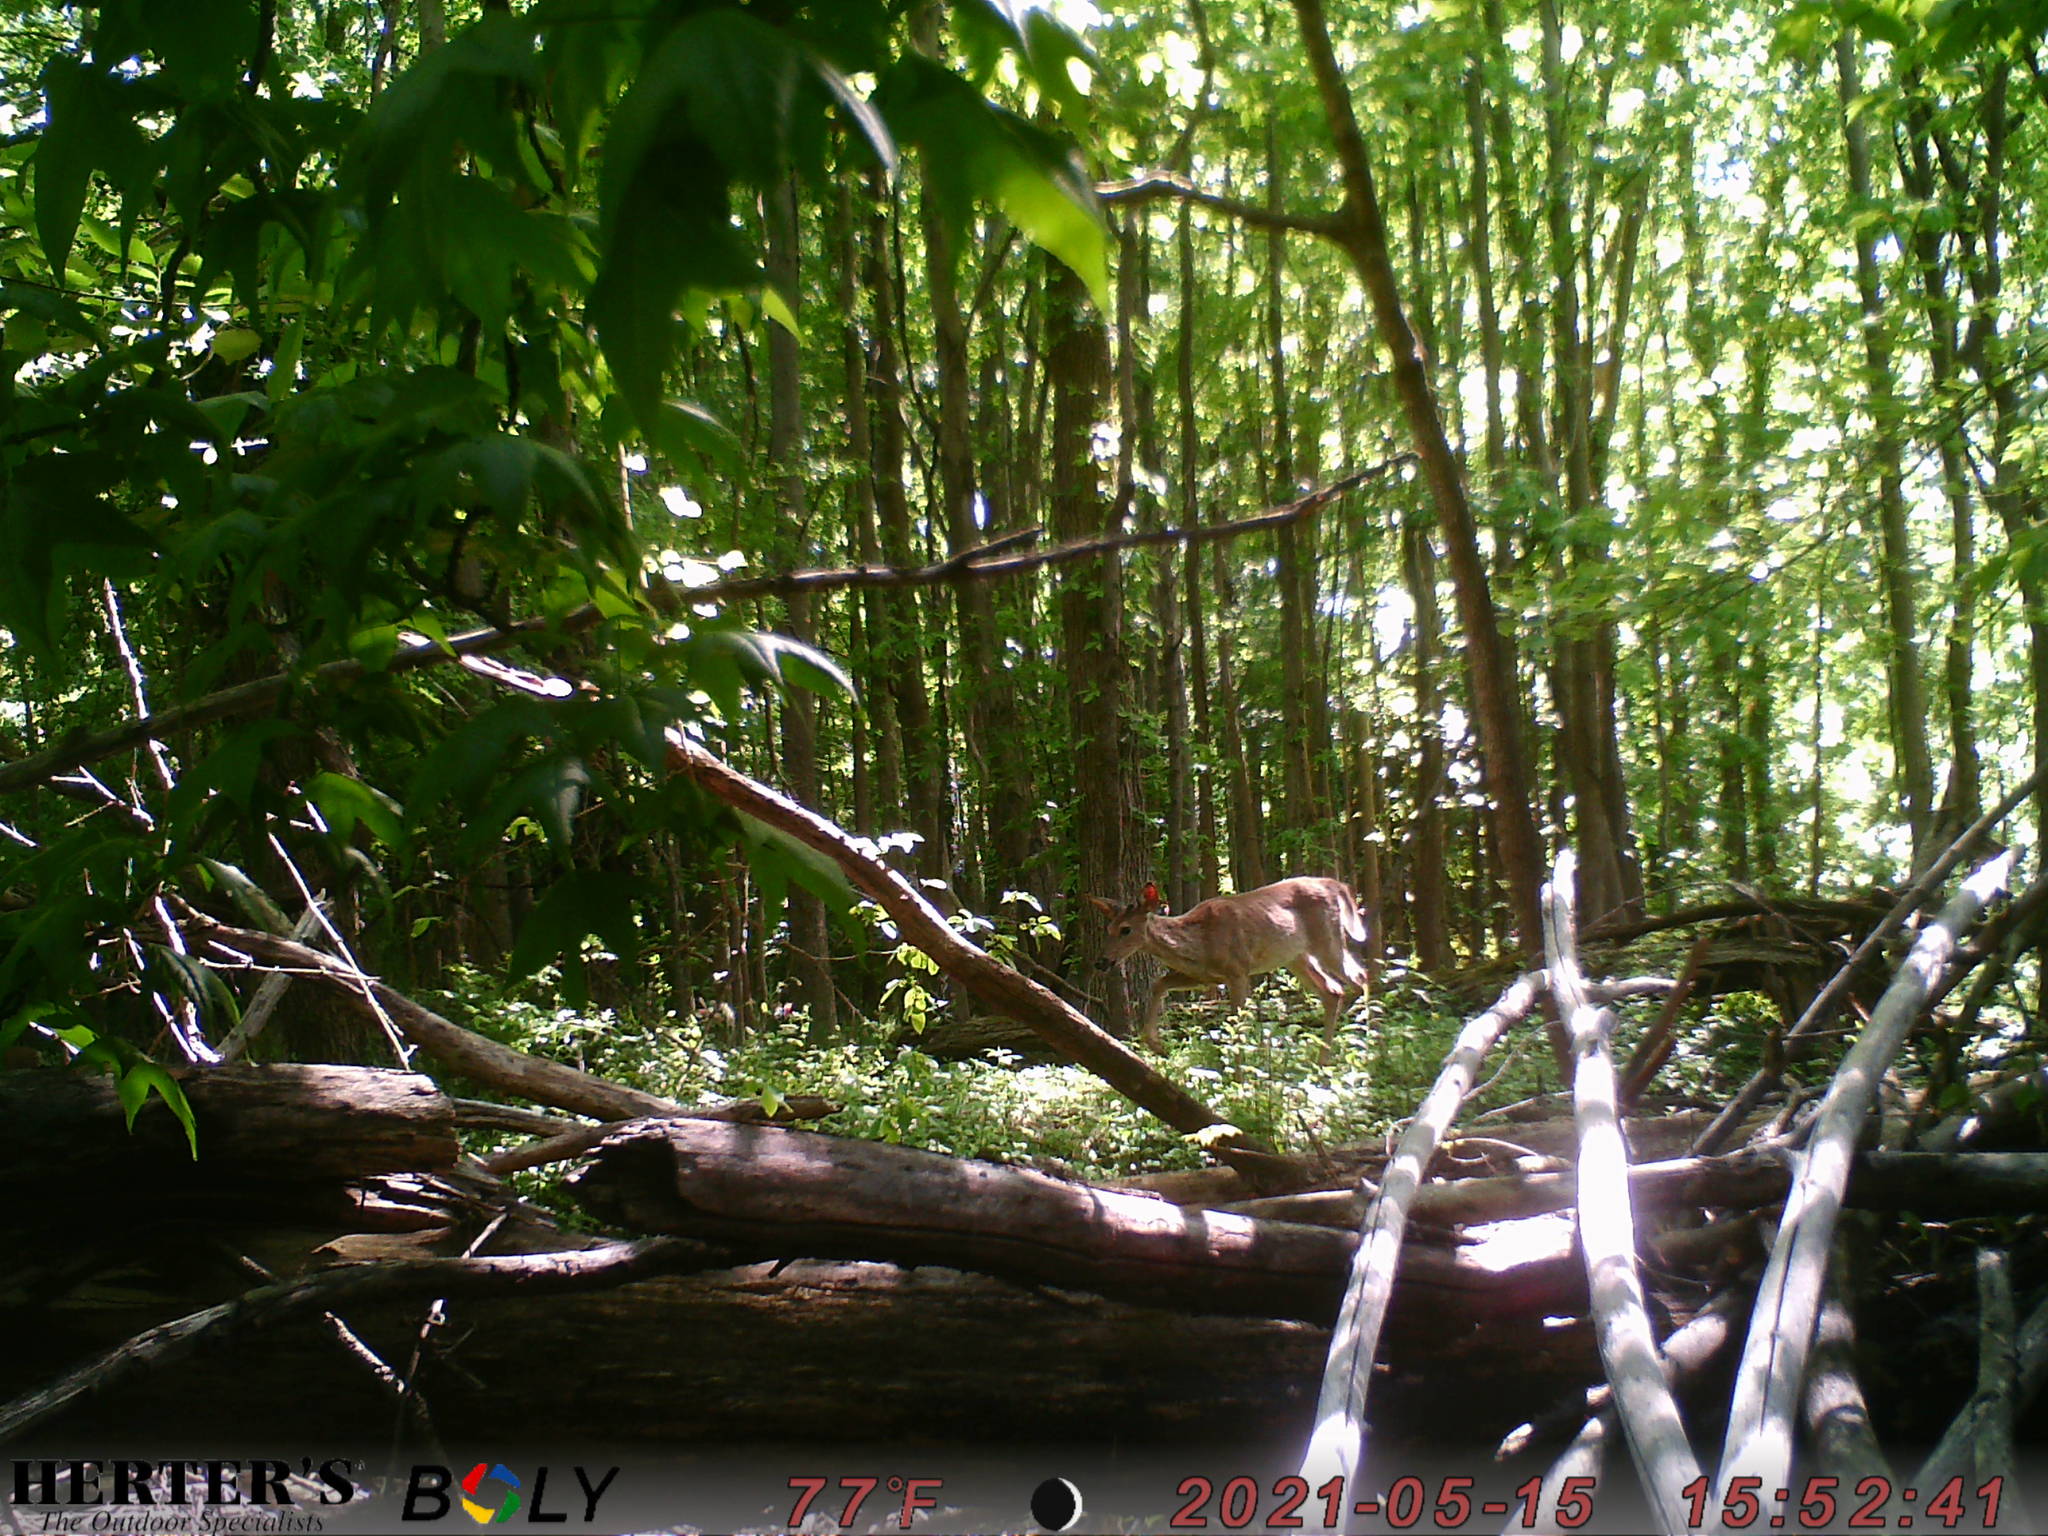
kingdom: Animalia
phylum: Chordata
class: Mammalia
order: Artiodactyla
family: Cervidae
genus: Odocoileus
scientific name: Odocoileus virginianus
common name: White-tailed deer
